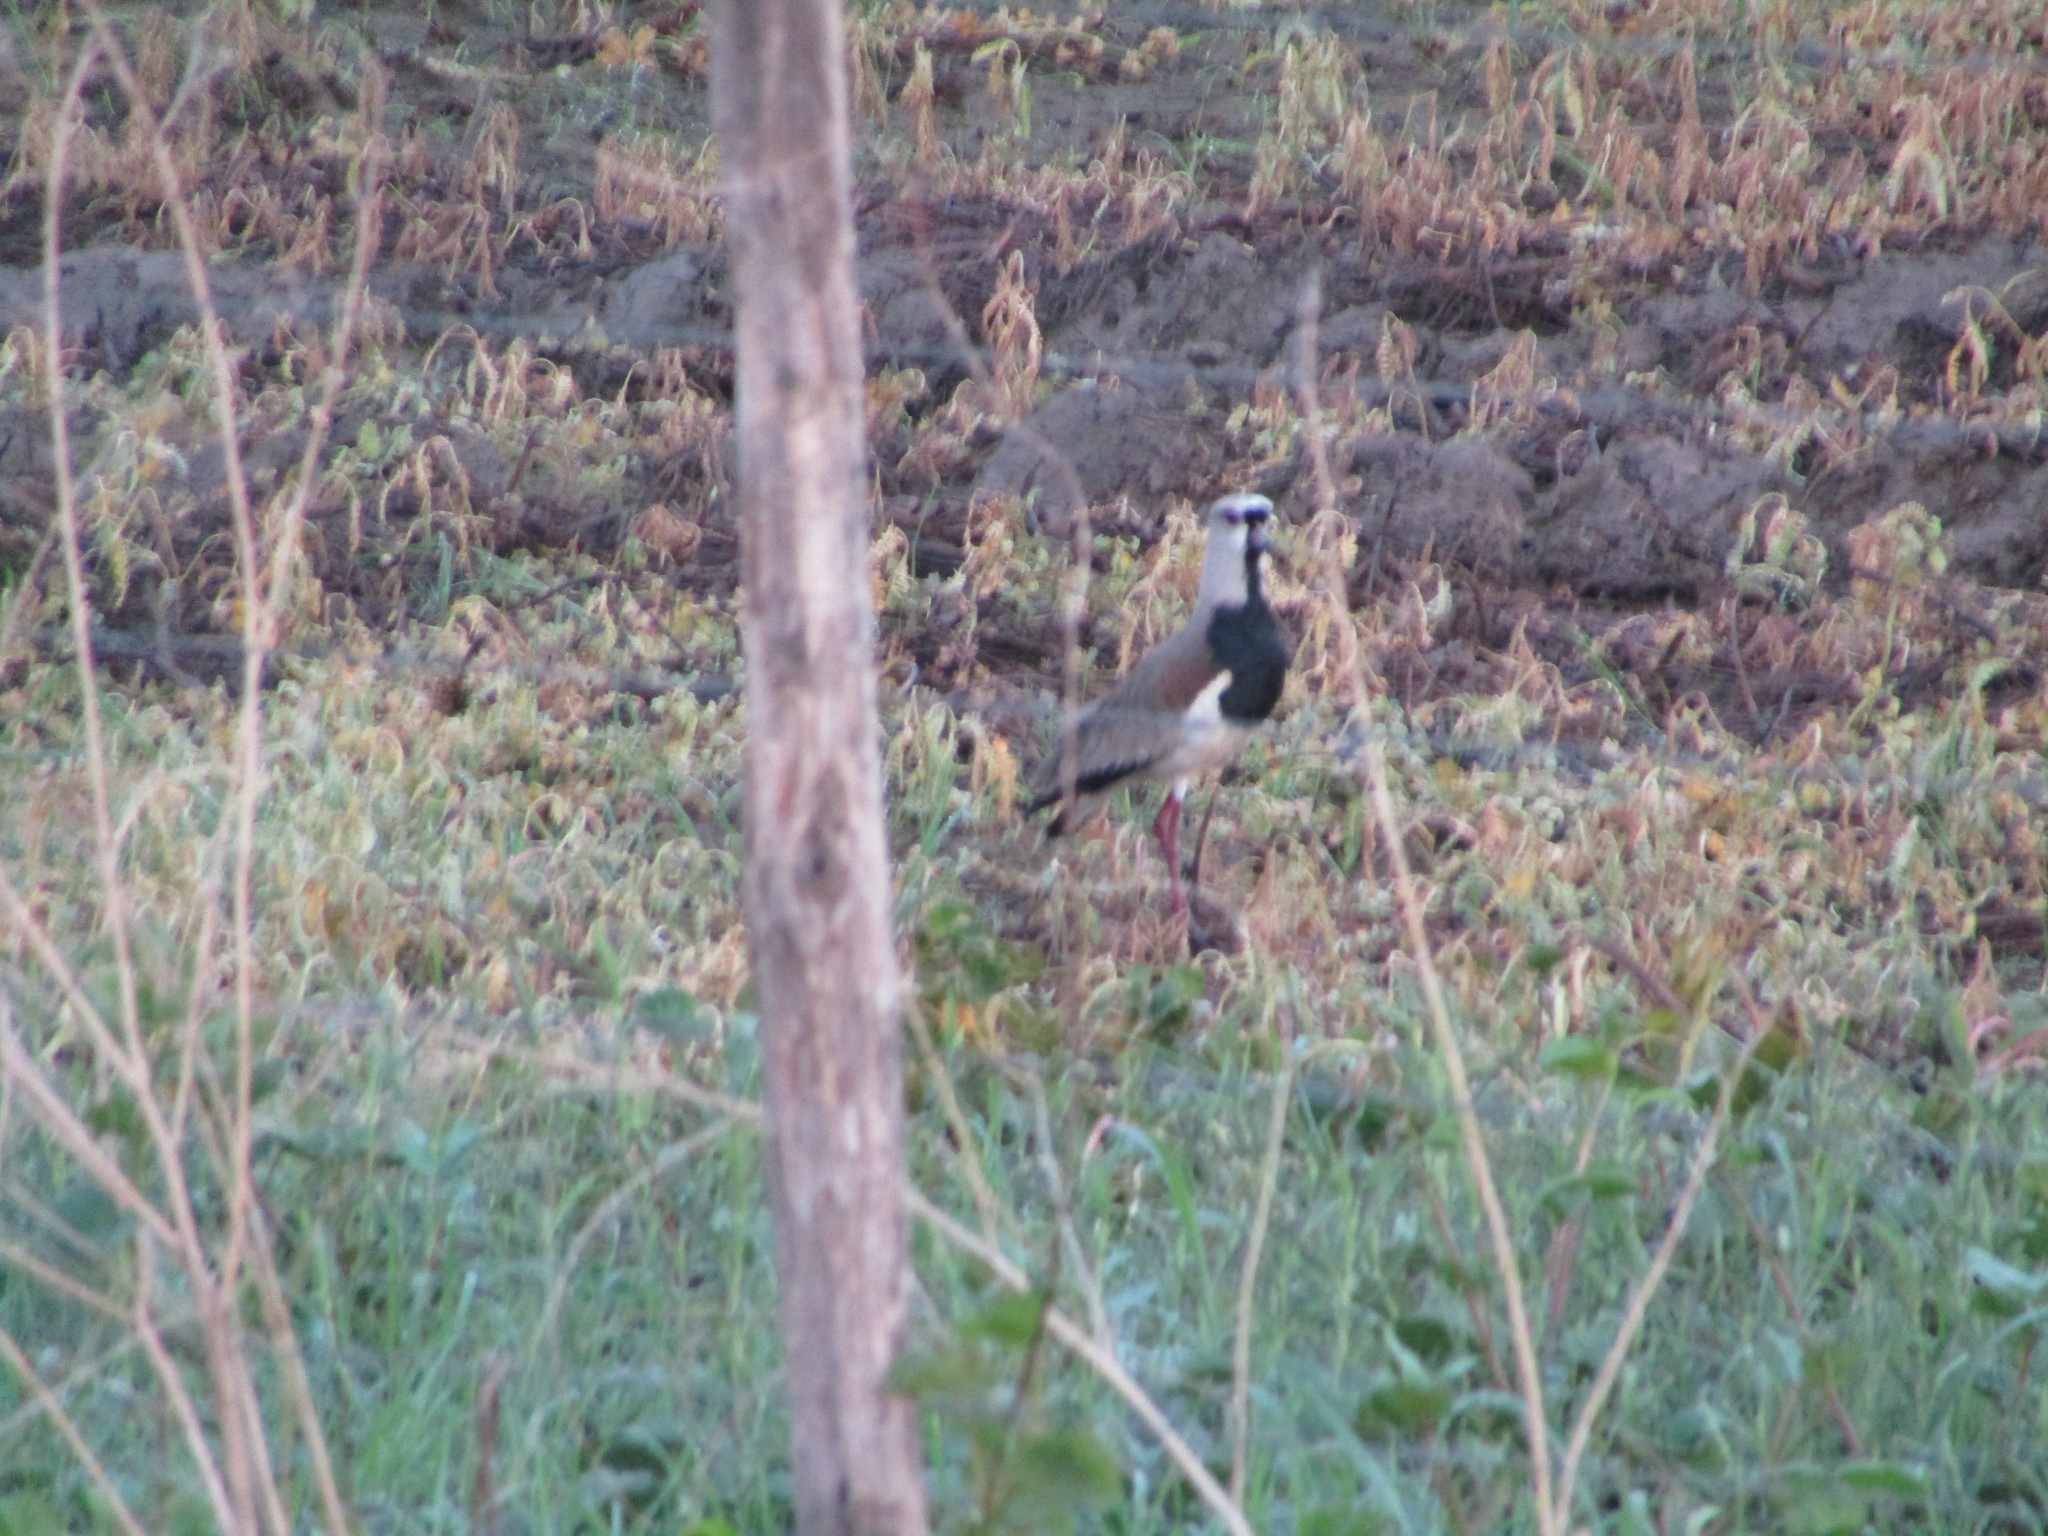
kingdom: Animalia
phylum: Chordata
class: Aves
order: Charadriiformes
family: Charadriidae
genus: Vanellus
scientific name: Vanellus chilensis
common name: Southern lapwing
